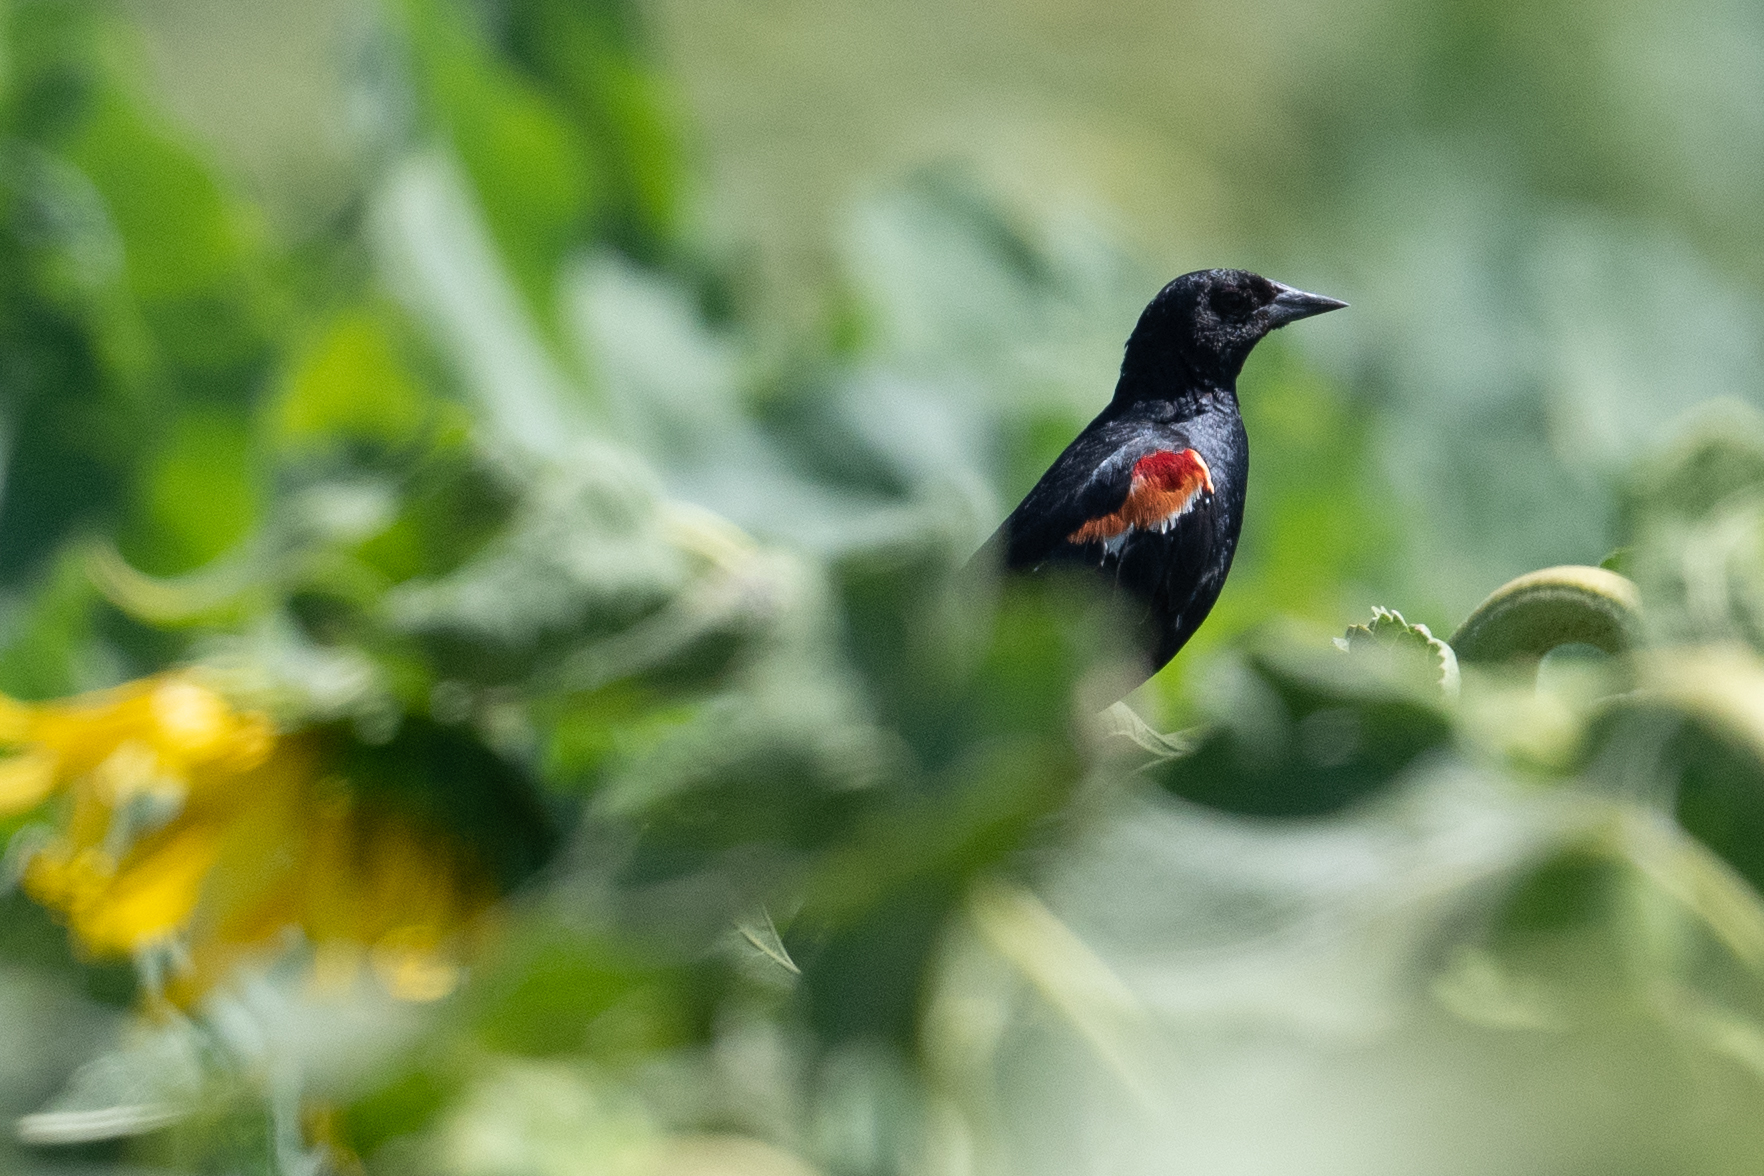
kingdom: Animalia
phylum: Chordata
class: Aves
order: Passeriformes
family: Icteridae
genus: Agelaius
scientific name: Agelaius tricolor
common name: Tricolored blackbird
